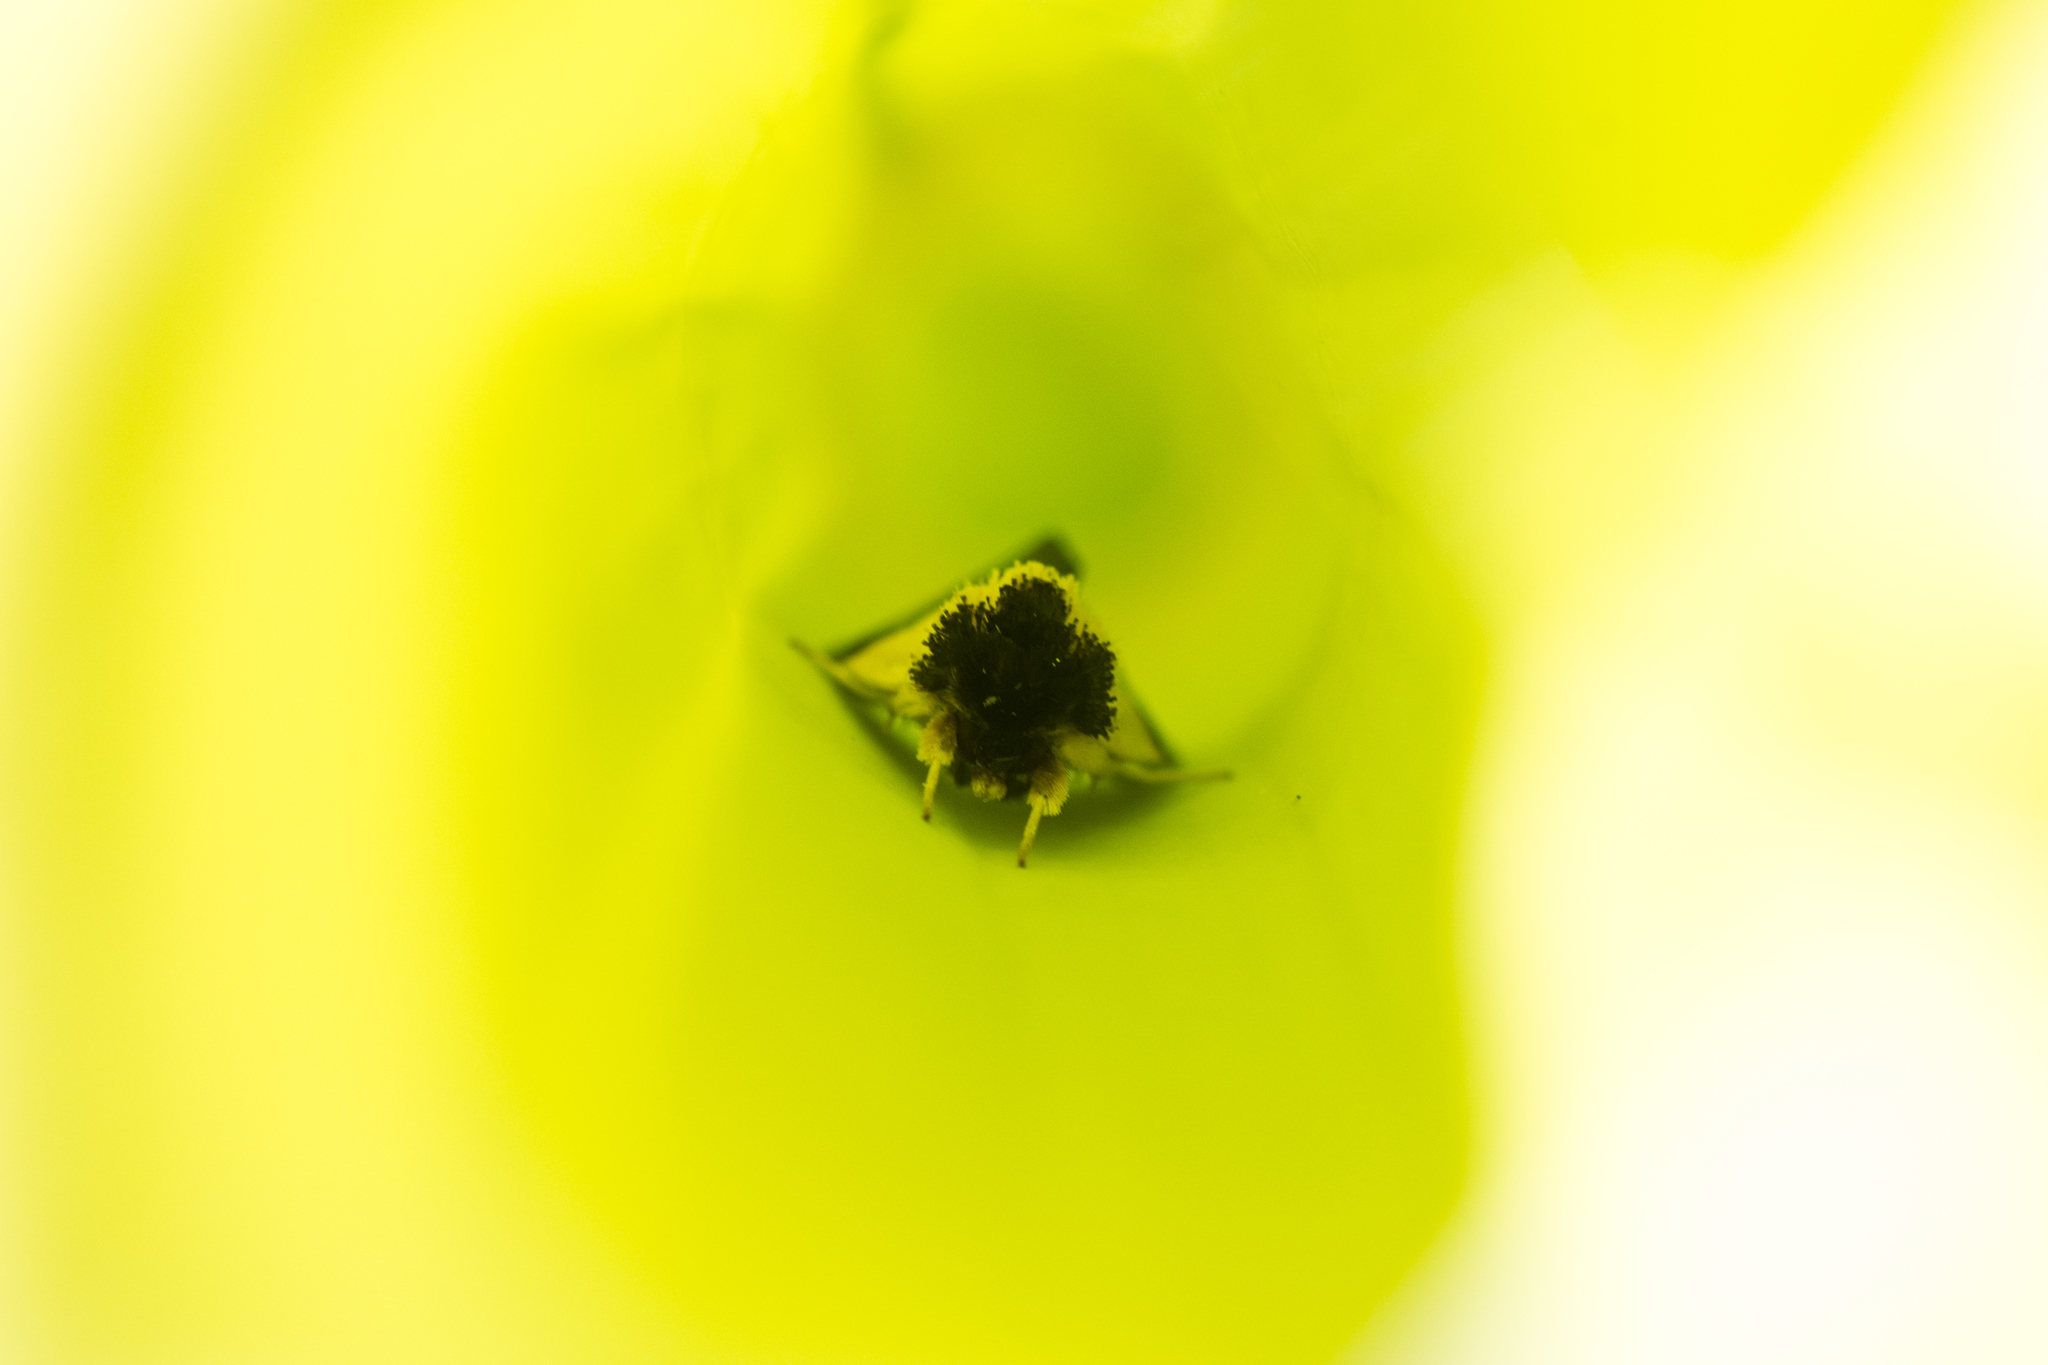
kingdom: Animalia
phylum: Arthropoda
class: Insecta
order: Lepidoptera
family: Noctuidae
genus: Exyra
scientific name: Exyra semicrocea
